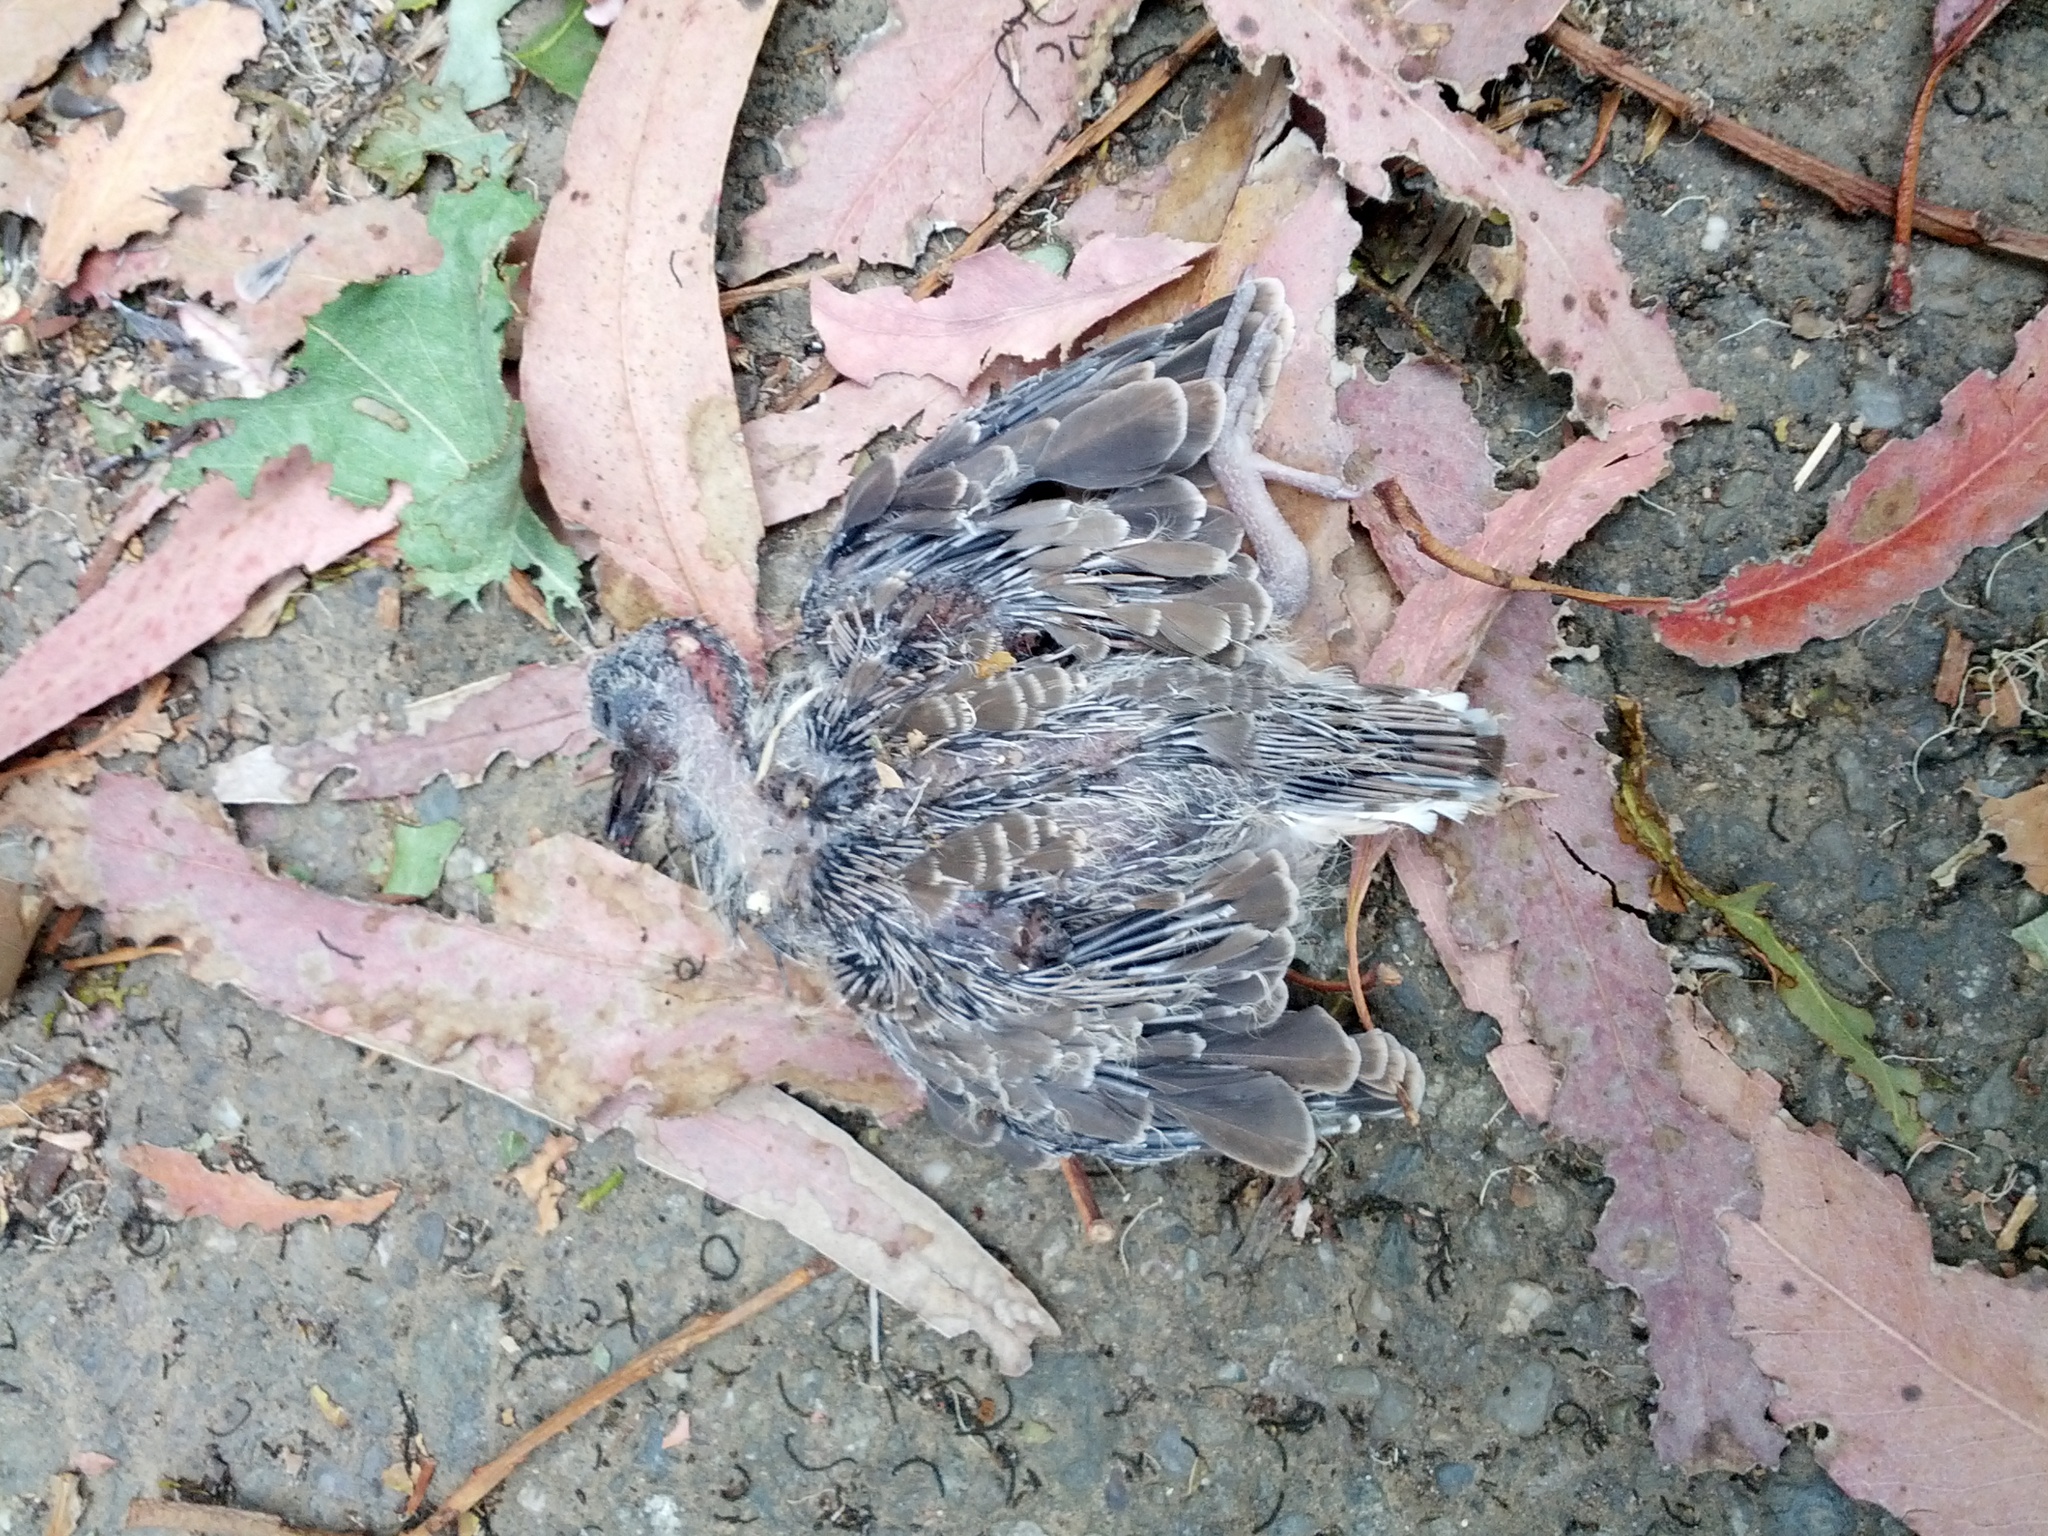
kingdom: Animalia
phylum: Chordata
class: Aves
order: Columbiformes
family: Columbidae
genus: Zenaida
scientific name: Zenaida macroura
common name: Mourning dove
